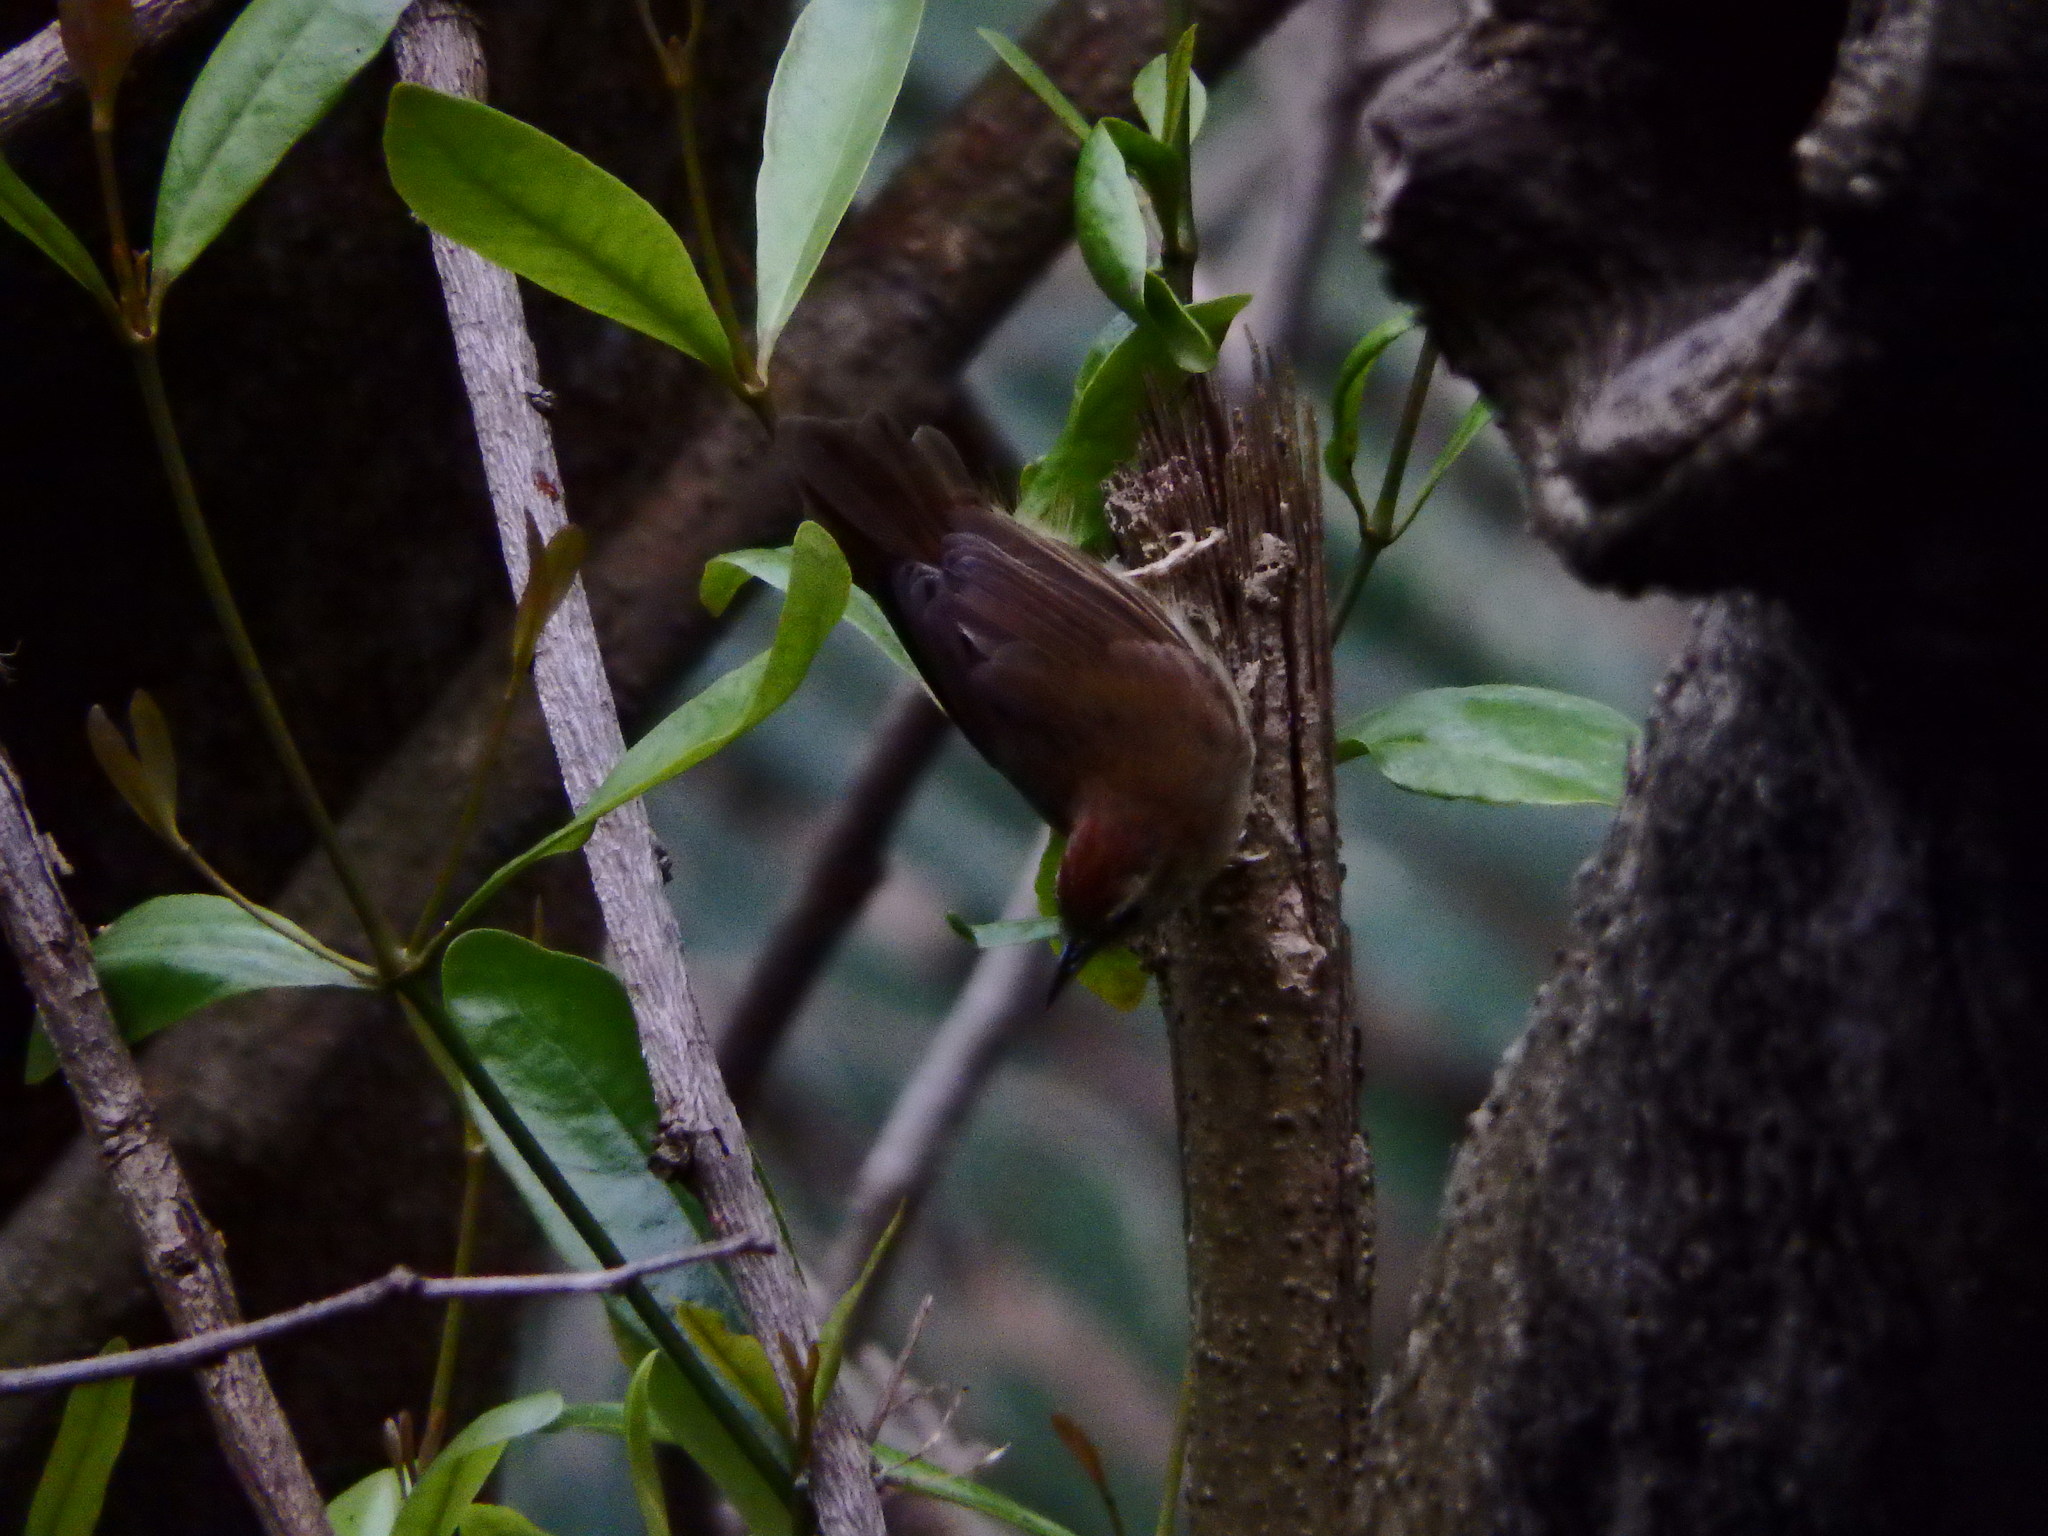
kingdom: Animalia
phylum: Chordata
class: Aves
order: Passeriformes
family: Cisticolidae
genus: Orthotomus
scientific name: Orthotomus sutorius
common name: Common tailorbird
